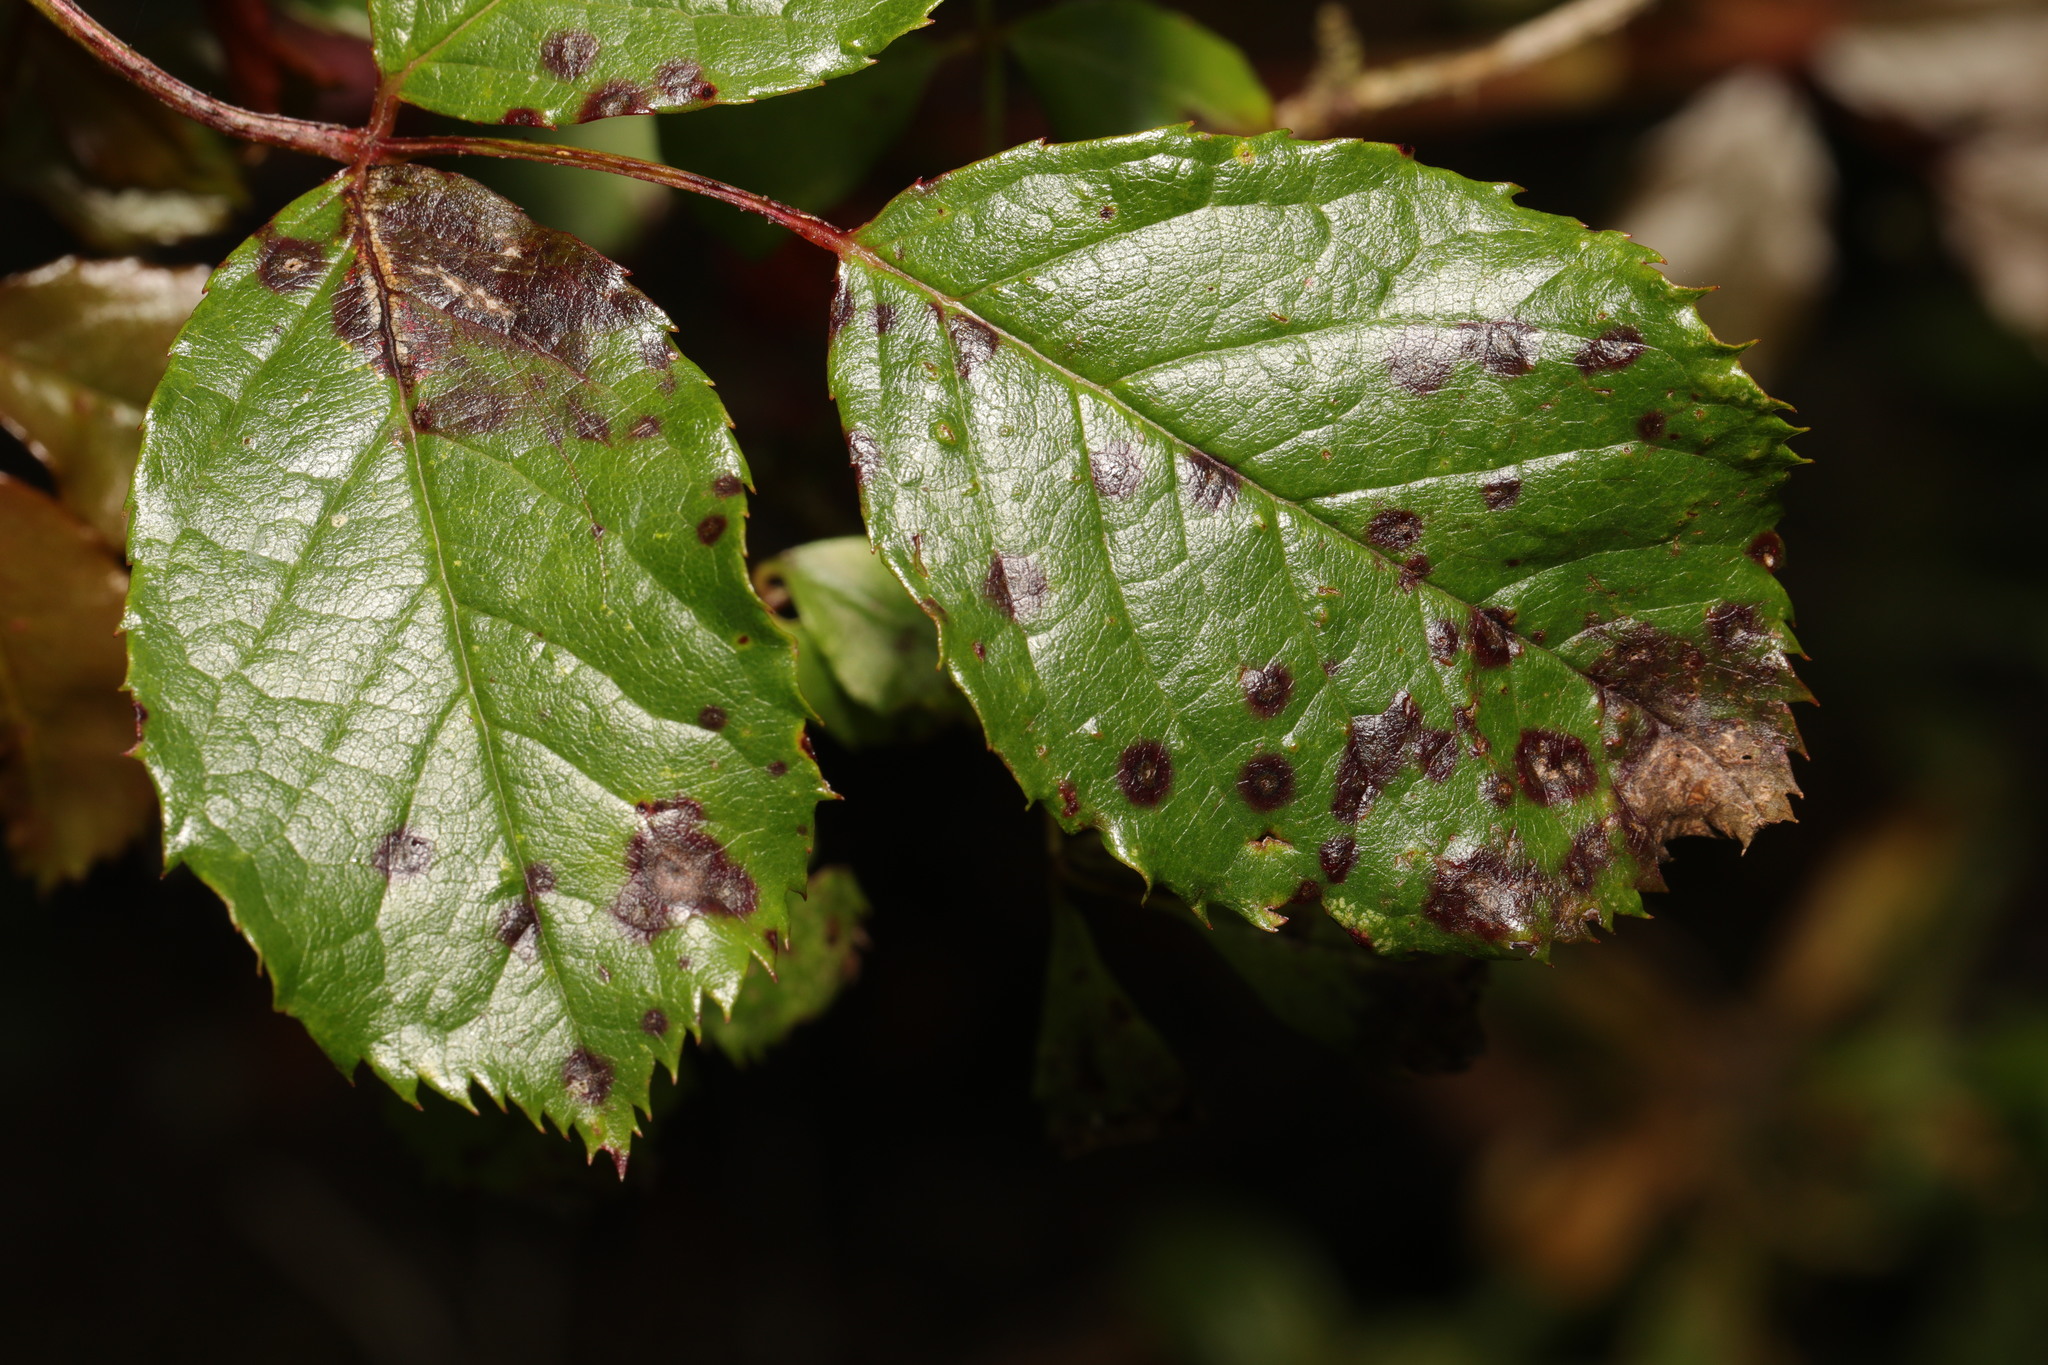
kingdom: Fungi
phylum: Ascomycota
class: Leotiomycetes
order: Helotiales
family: Drepanopezizaceae
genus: Diplocarpon
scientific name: Diplocarpon rosae
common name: Rose black-spot
